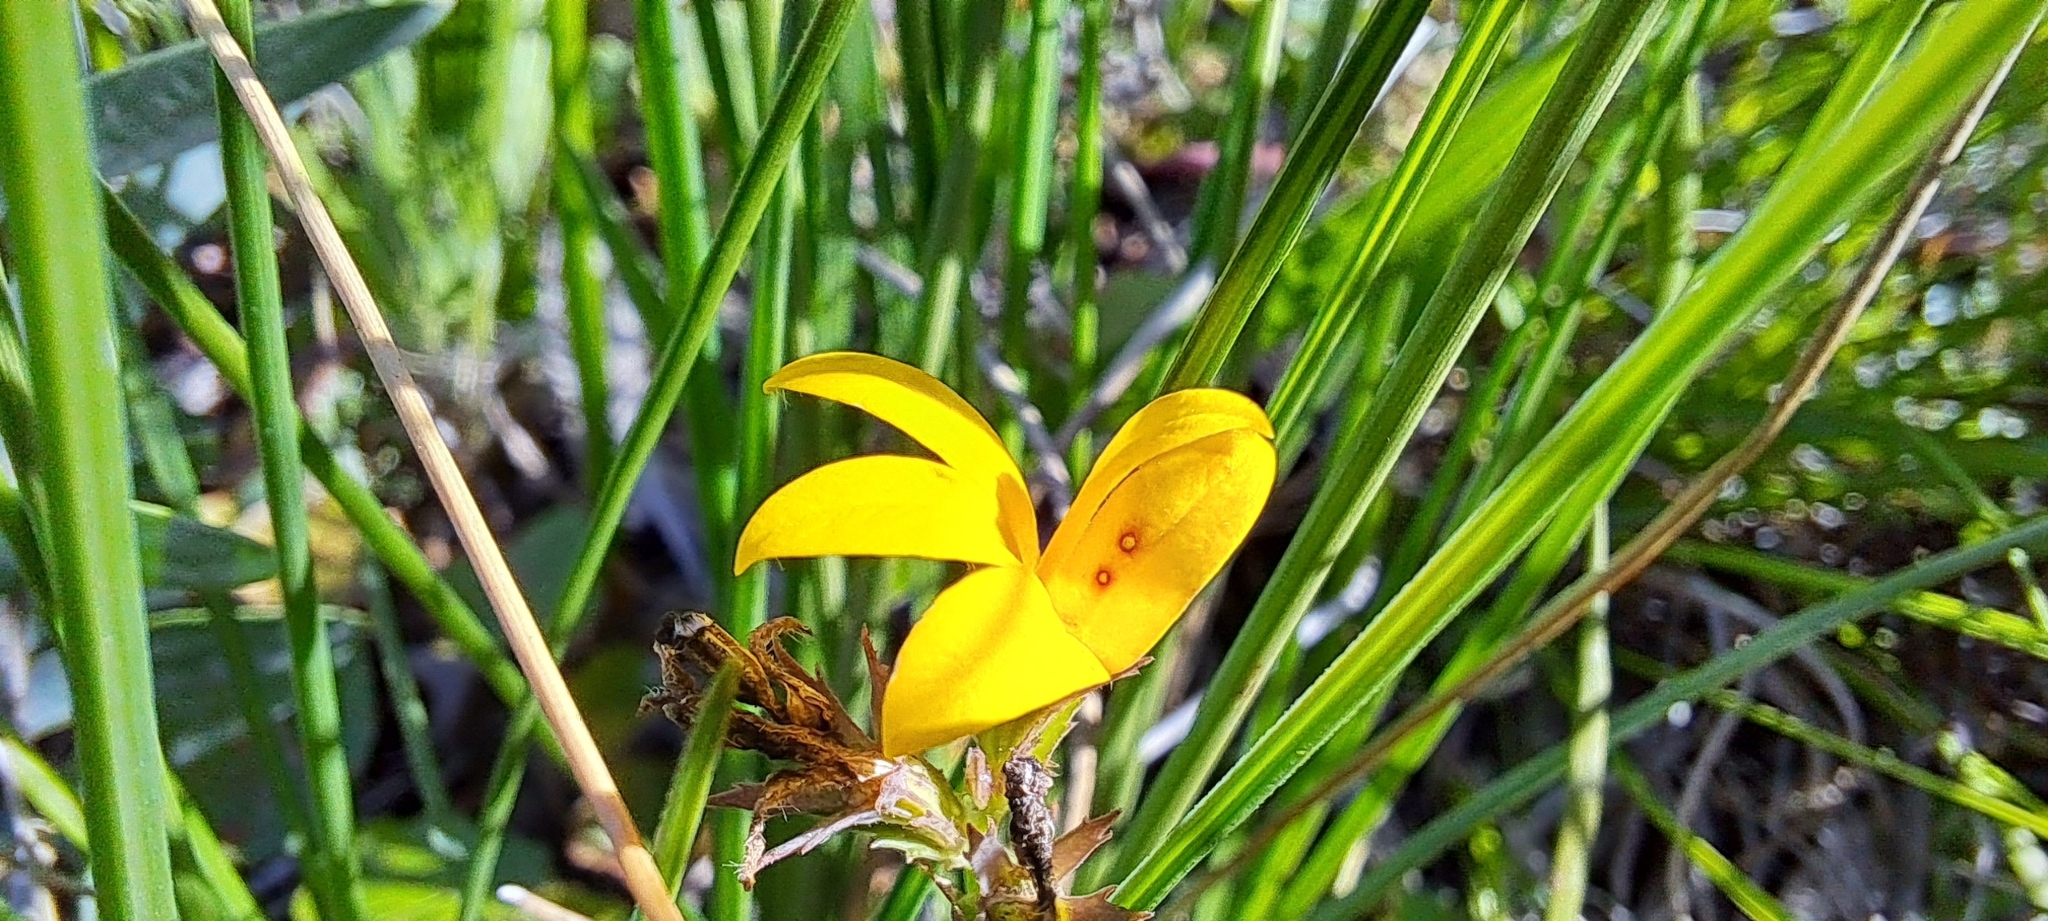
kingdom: Plantae
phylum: Tracheophyta
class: Magnoliopsida
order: Asterales
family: Campanulaceae
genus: Monopsis
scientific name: Monopsis lutea
